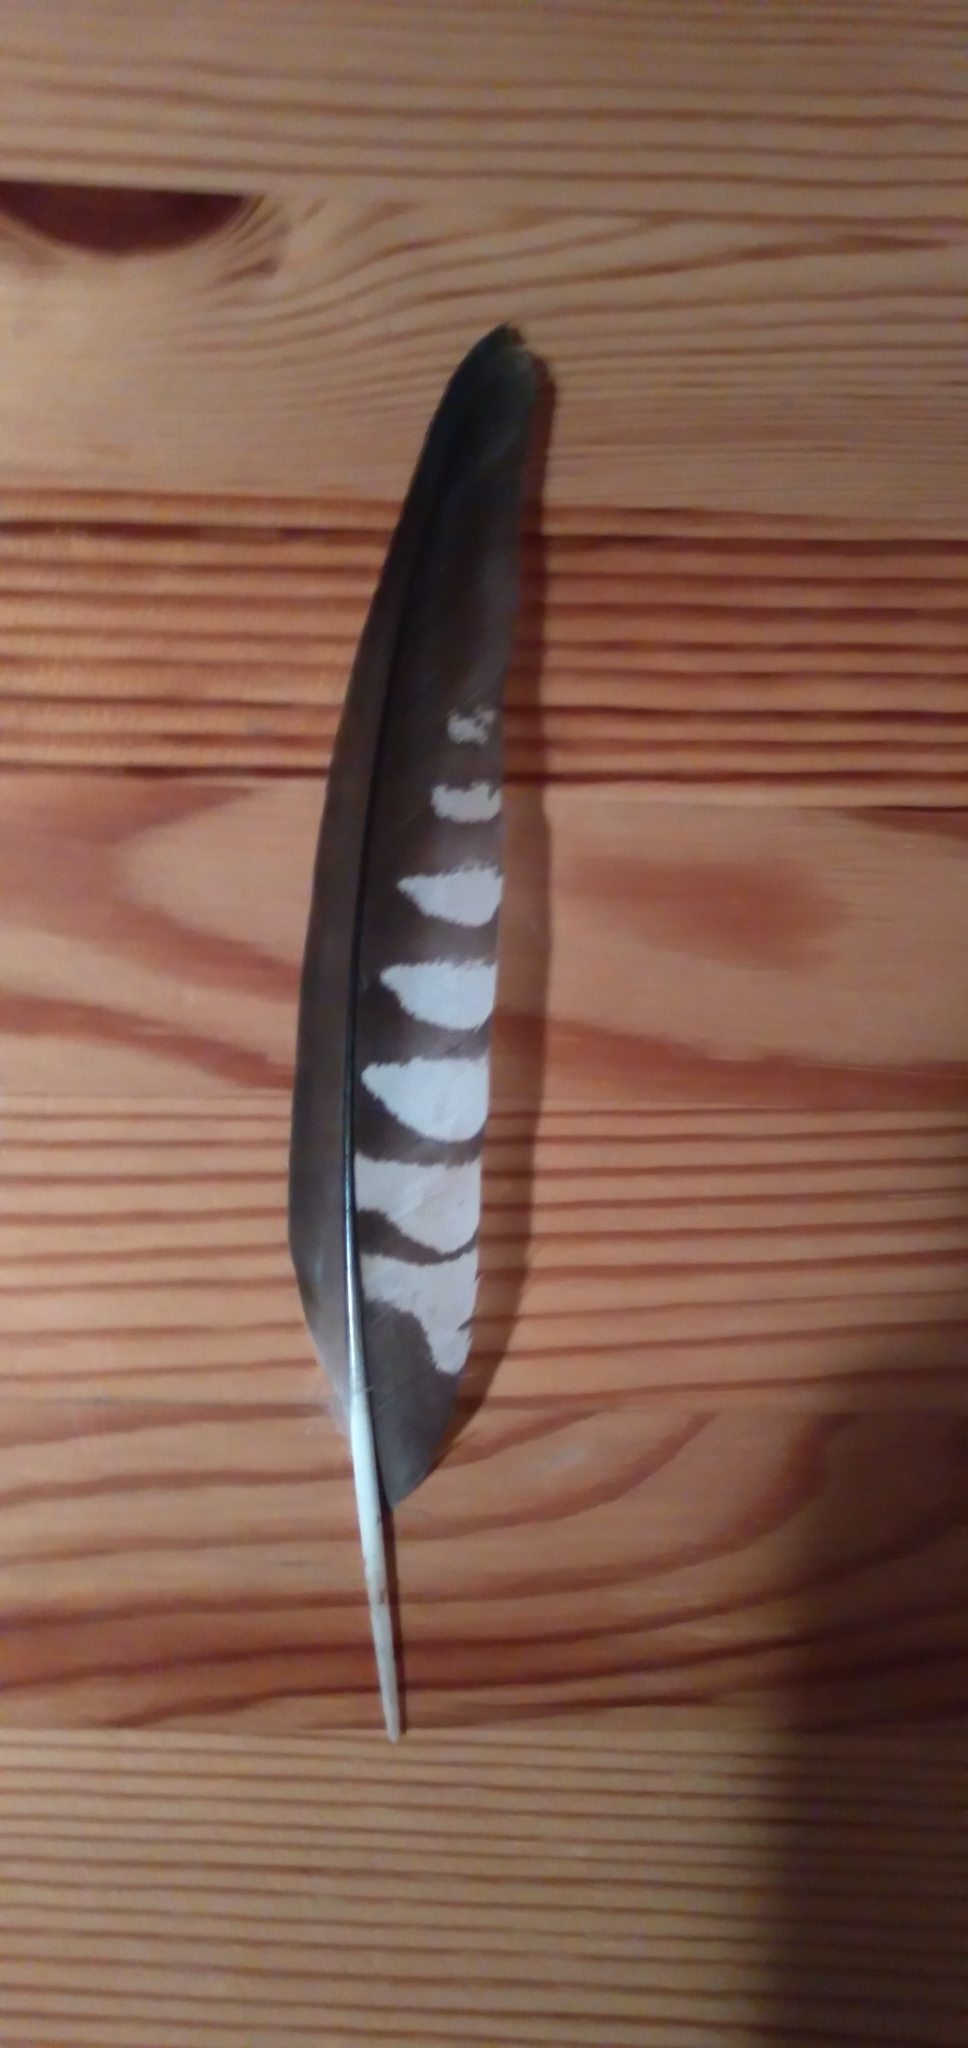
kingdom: Animalia
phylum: Chordata
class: Aves
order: Cuculiformes
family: Cuculidae
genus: Cuculus
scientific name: Cuculus canorus
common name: Common cuckoo
